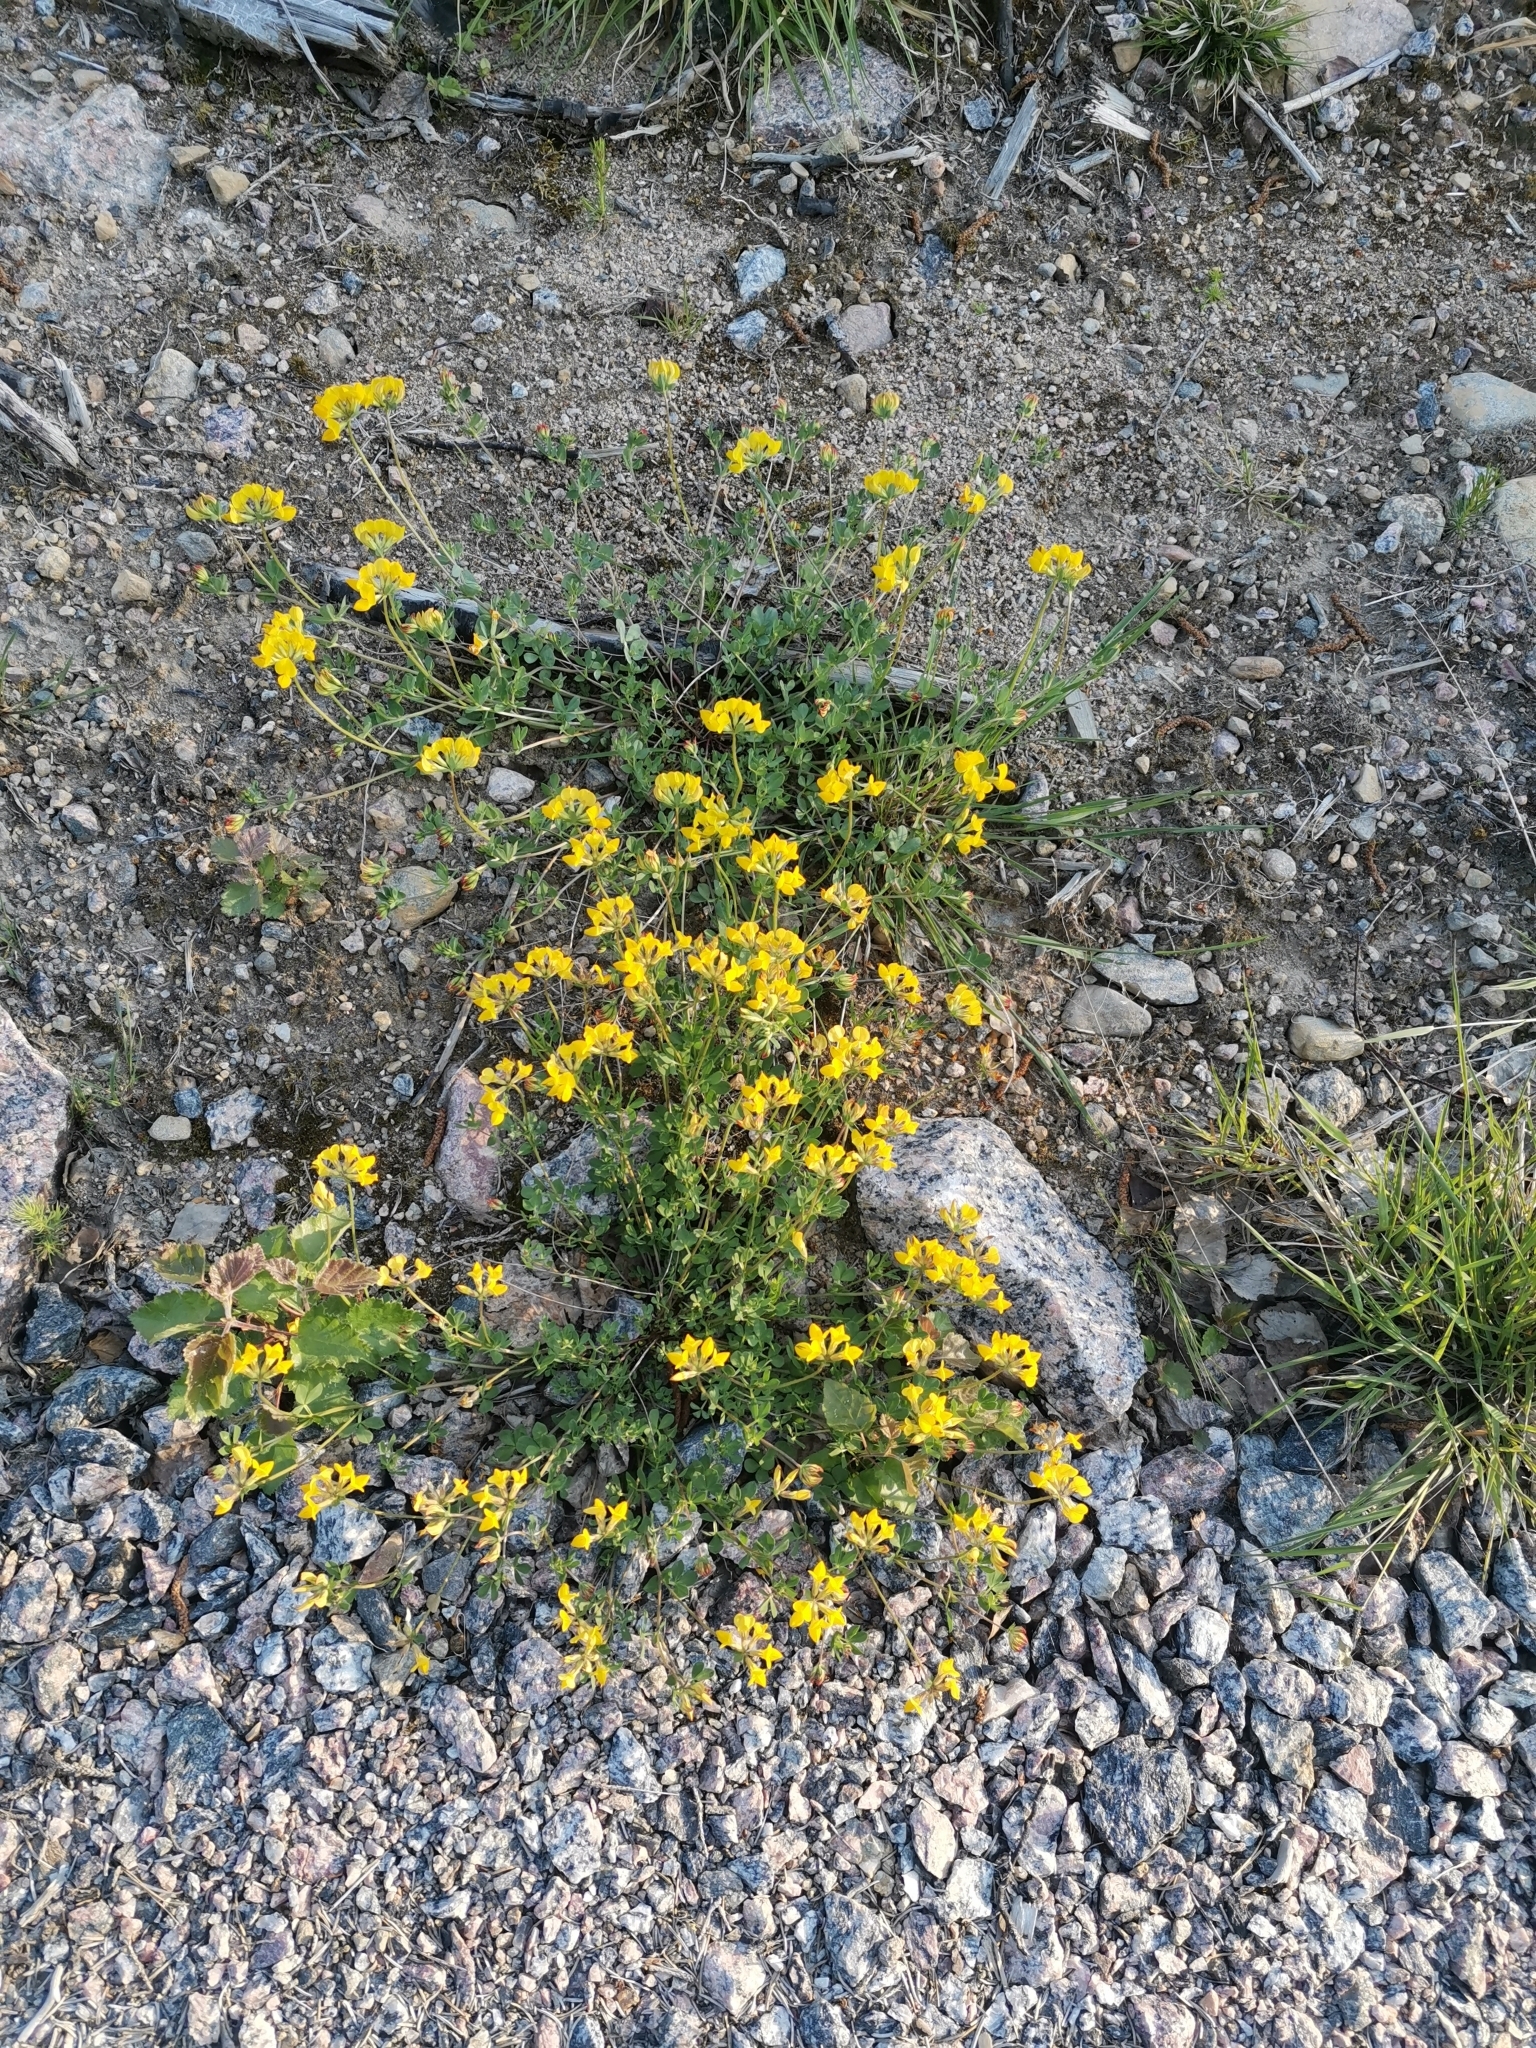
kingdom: Plantae
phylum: Tracheophyta
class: Magnoliopsida
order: Fabales
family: Fabaceae
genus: Lotus
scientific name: Lotus corniculatus
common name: Common bird's-foot-trefoil
